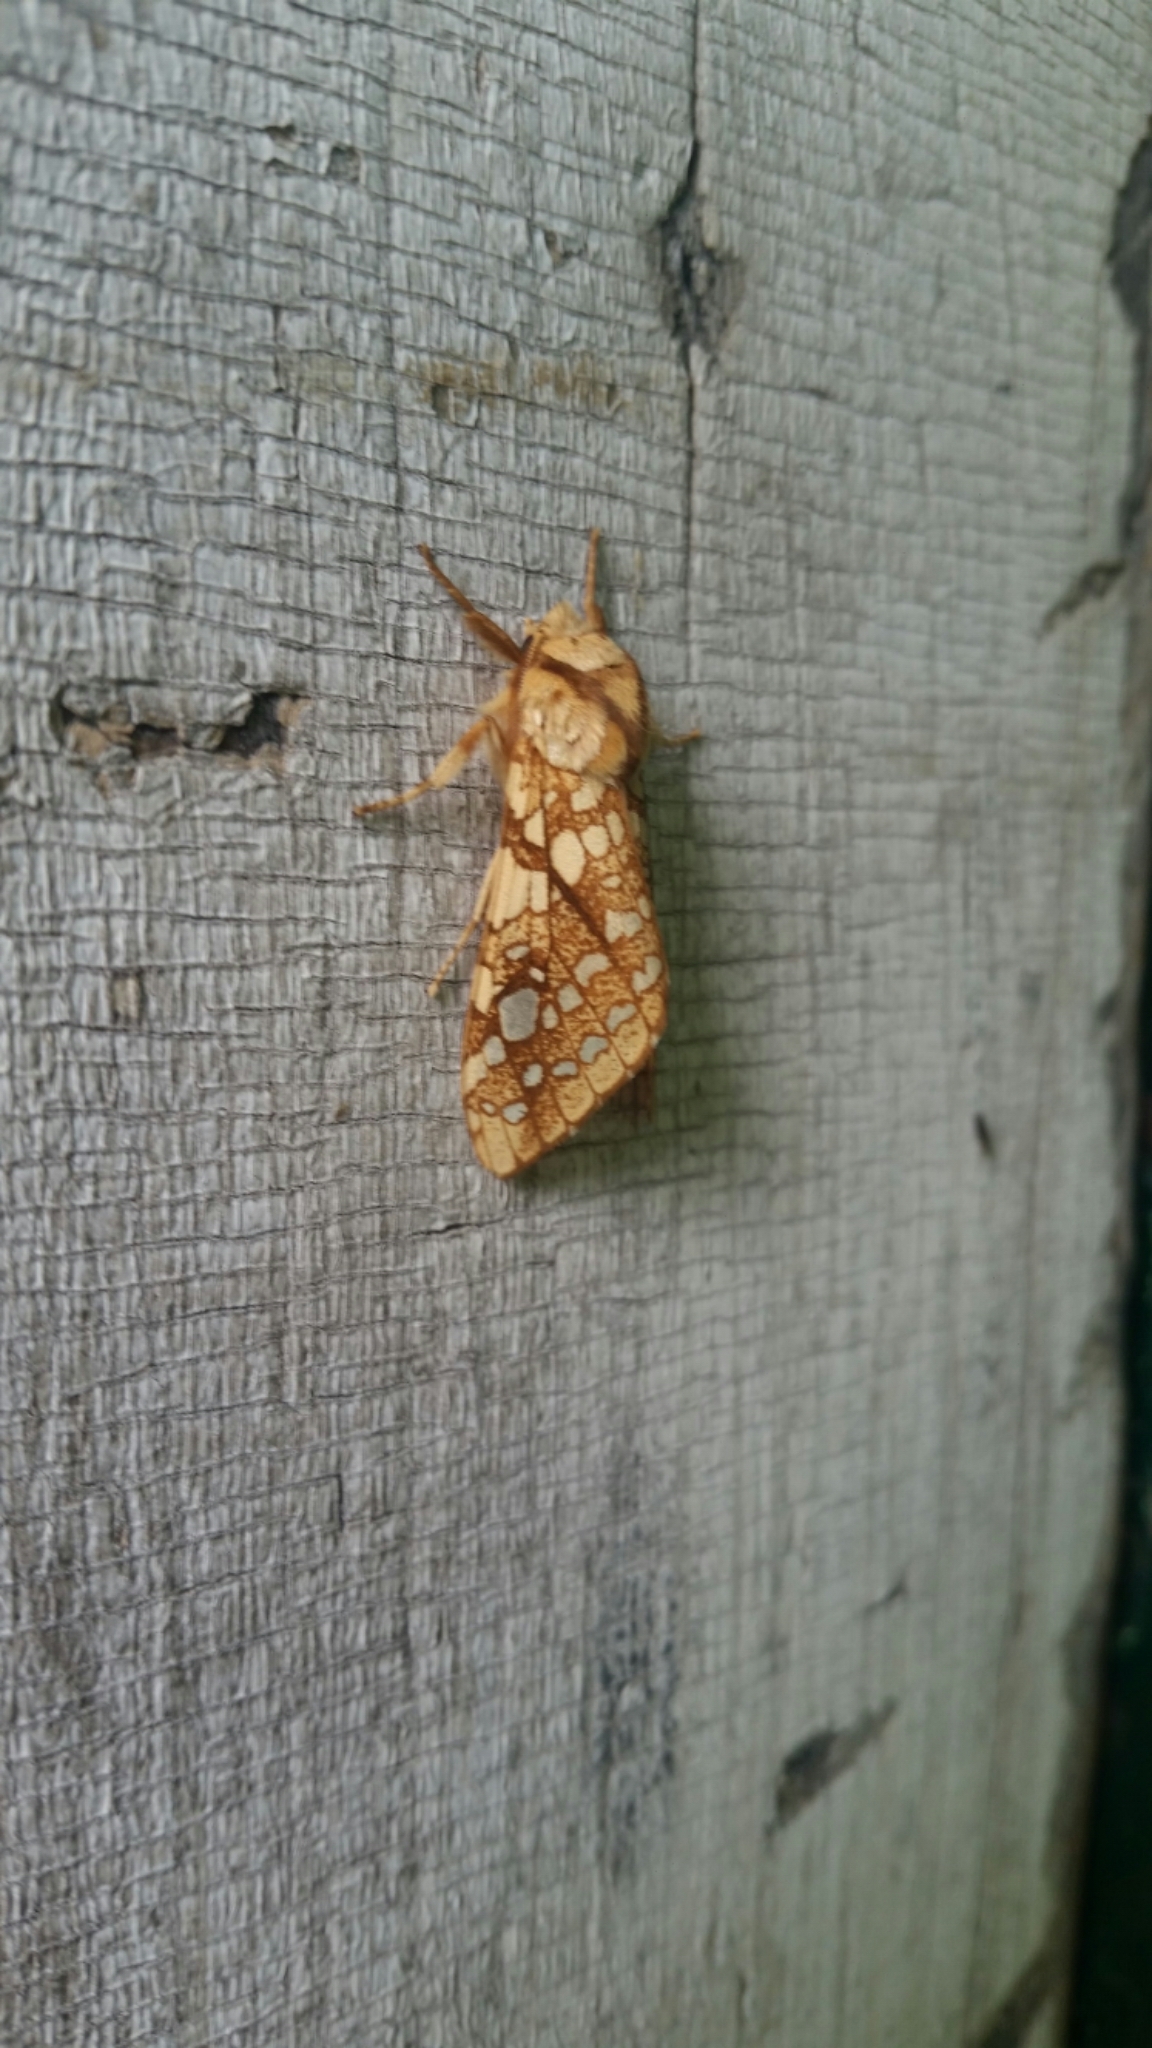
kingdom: Animalia
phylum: Arthropoda
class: Insecta
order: Lepidoptera
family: Erebidae
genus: Lophocampa
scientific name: Lophocampa caryae
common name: Hickory tussock moth
